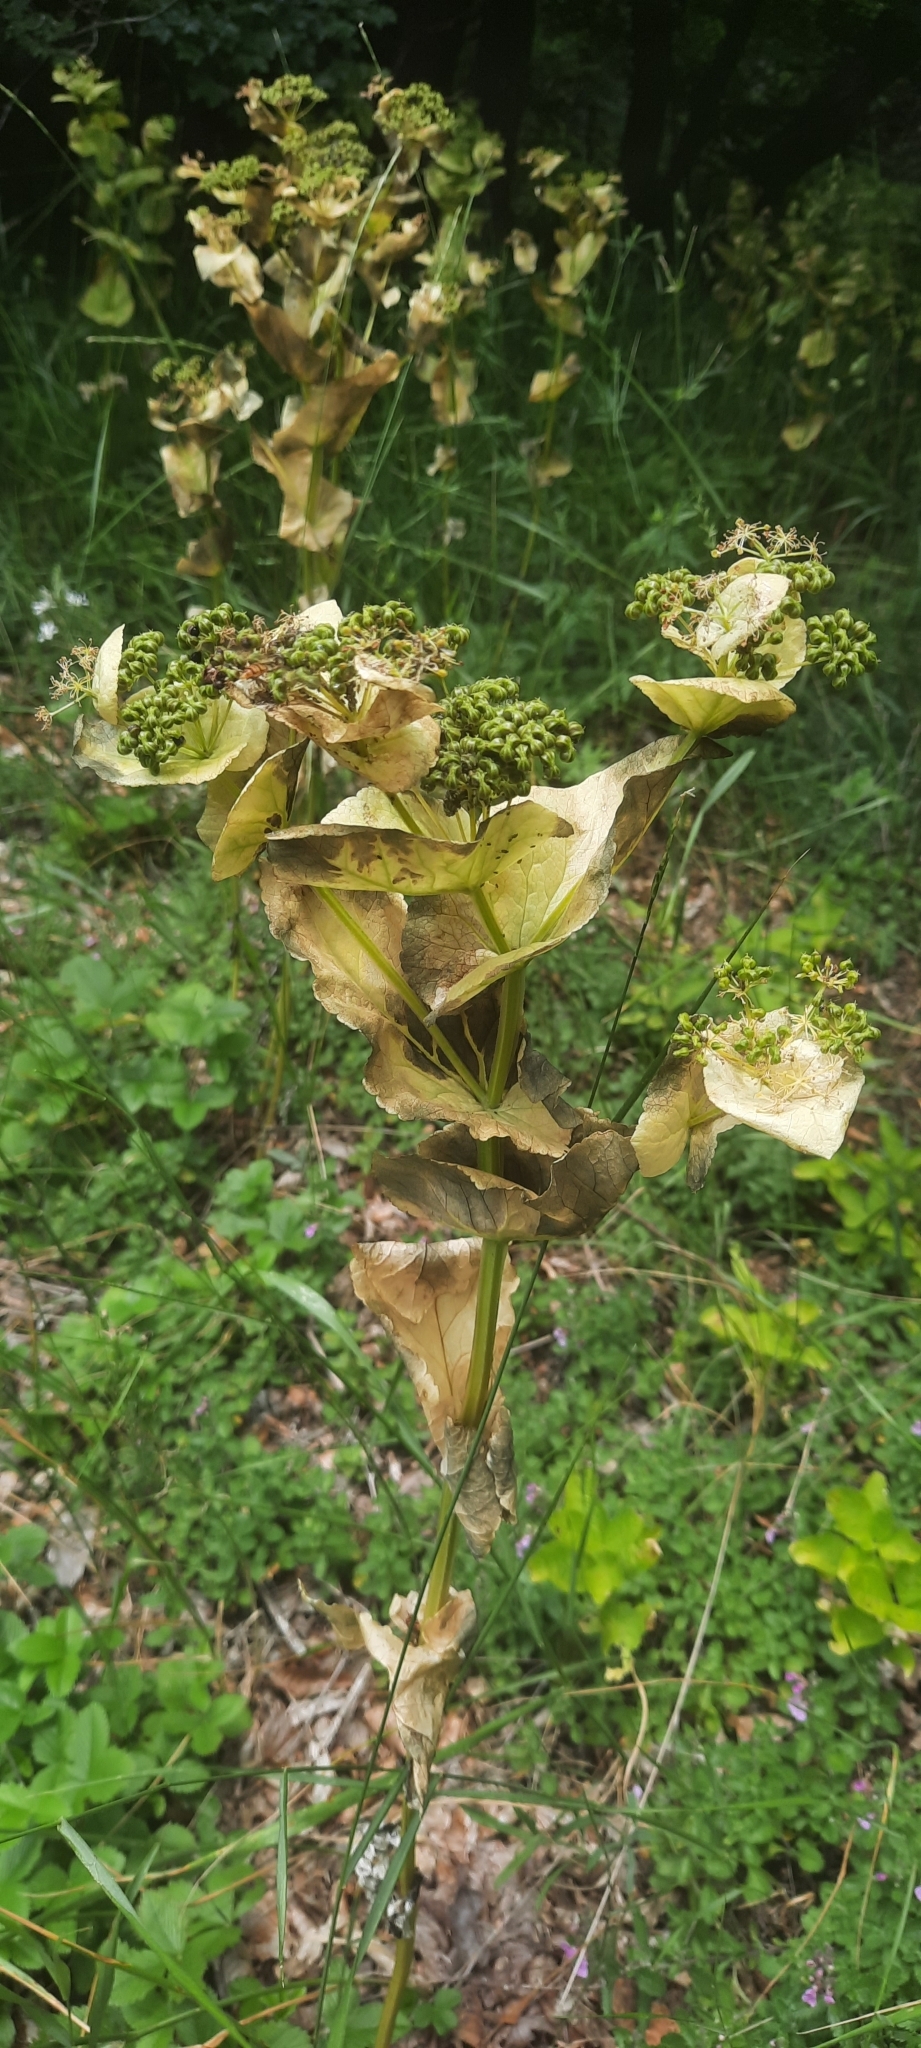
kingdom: Plantae
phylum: Tracheophyta
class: Magnoliopsida
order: Apiales
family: Apiaceae
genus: Smyrnium
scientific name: Smyrnium perfoliatum
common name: Perfoliate alexanders
